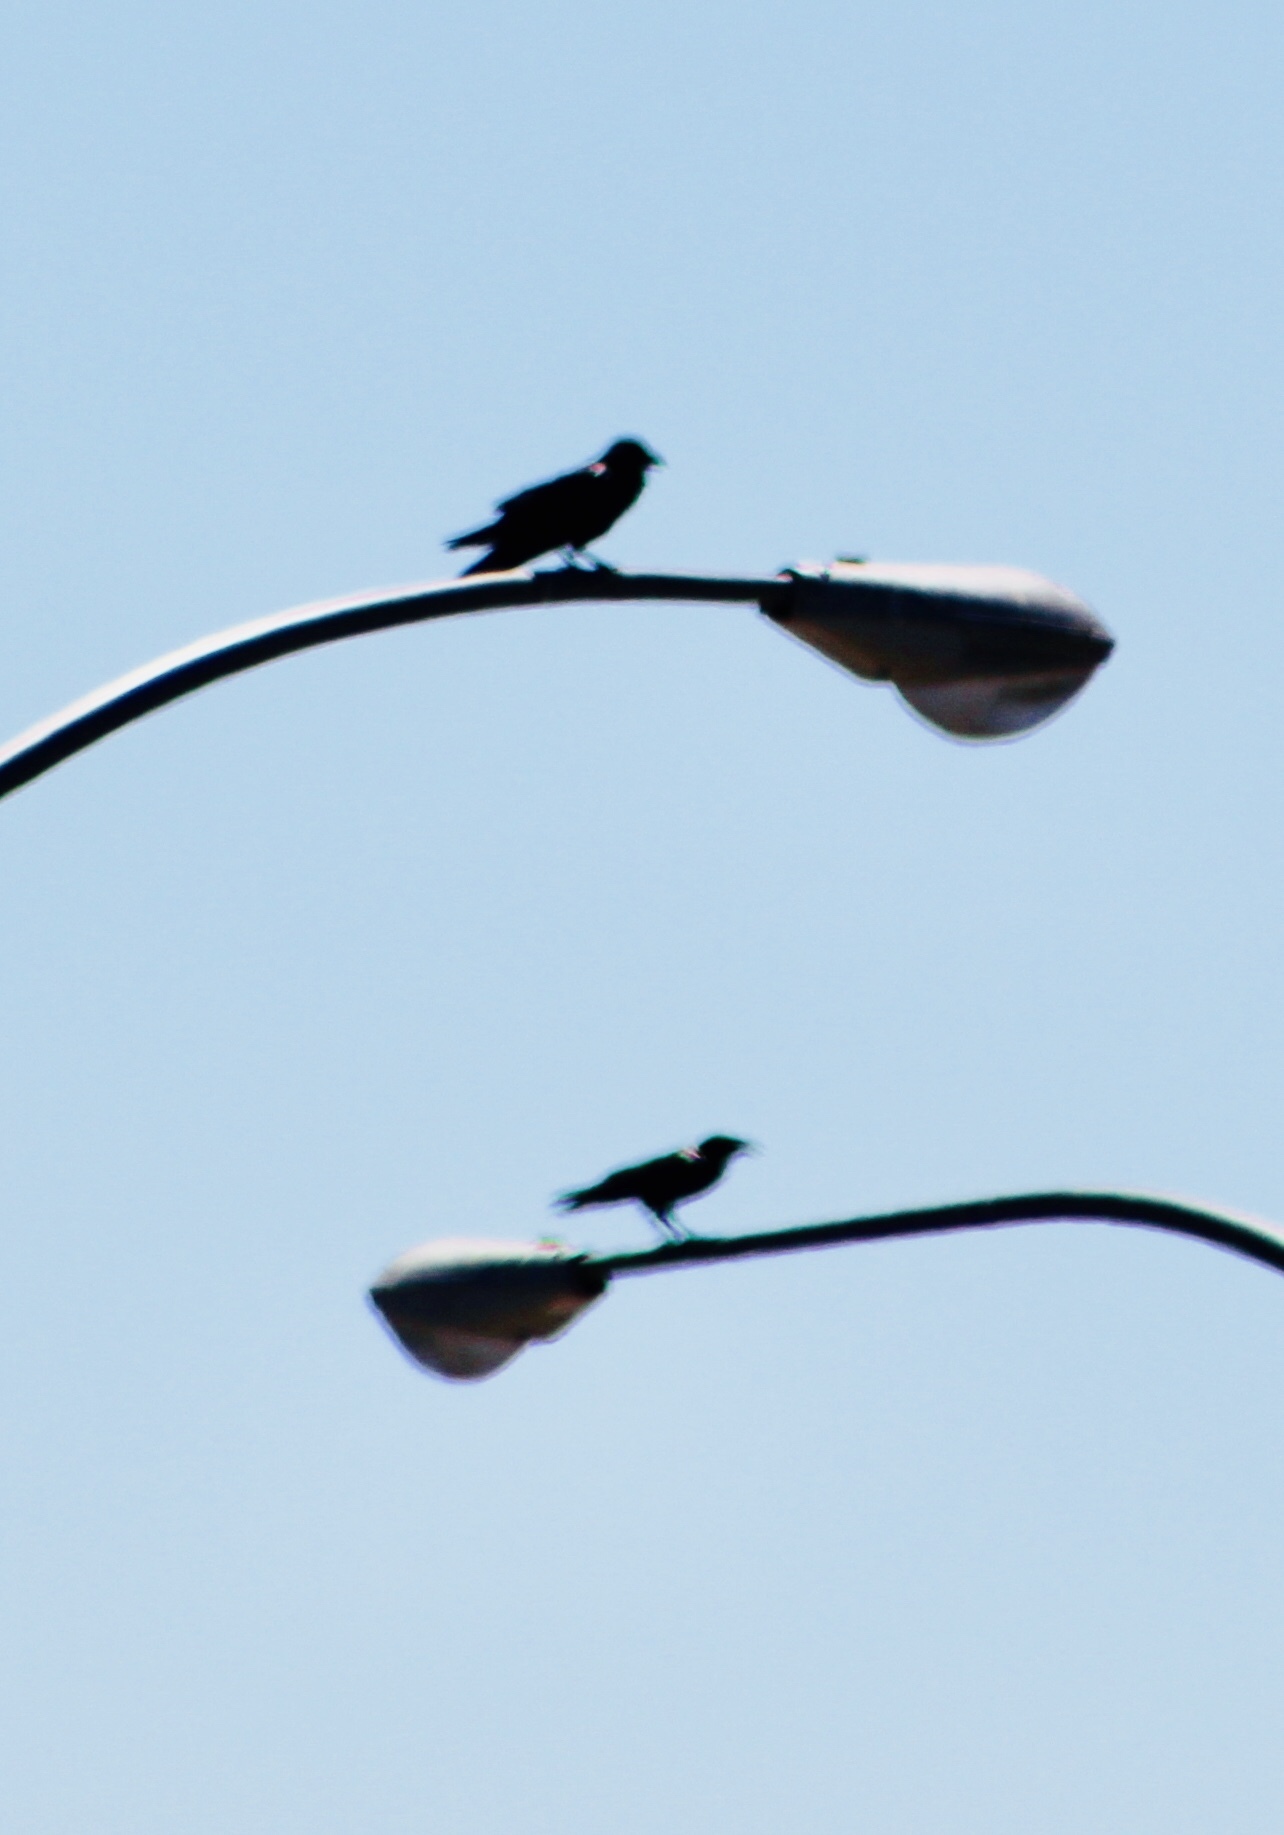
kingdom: Animalia
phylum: Chordata
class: Aves
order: Passeriformes
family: Corvidae
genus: Corvus
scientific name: Corvus corax
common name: Common raven
